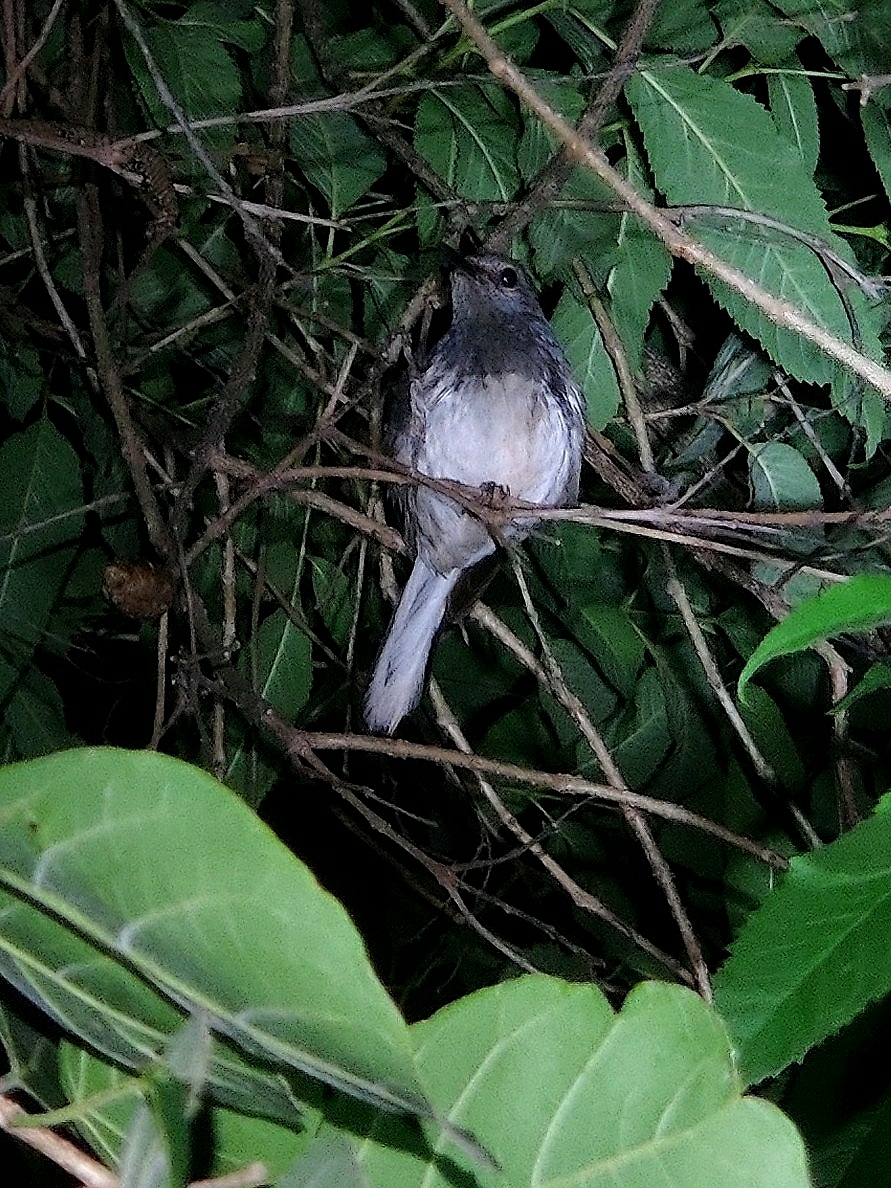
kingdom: Animalia
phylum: Chordata
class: Aves
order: Passeriformes
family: Muscicapidae
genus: Copsychus
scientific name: Copsychus saularis
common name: Oriental magpie-robin
